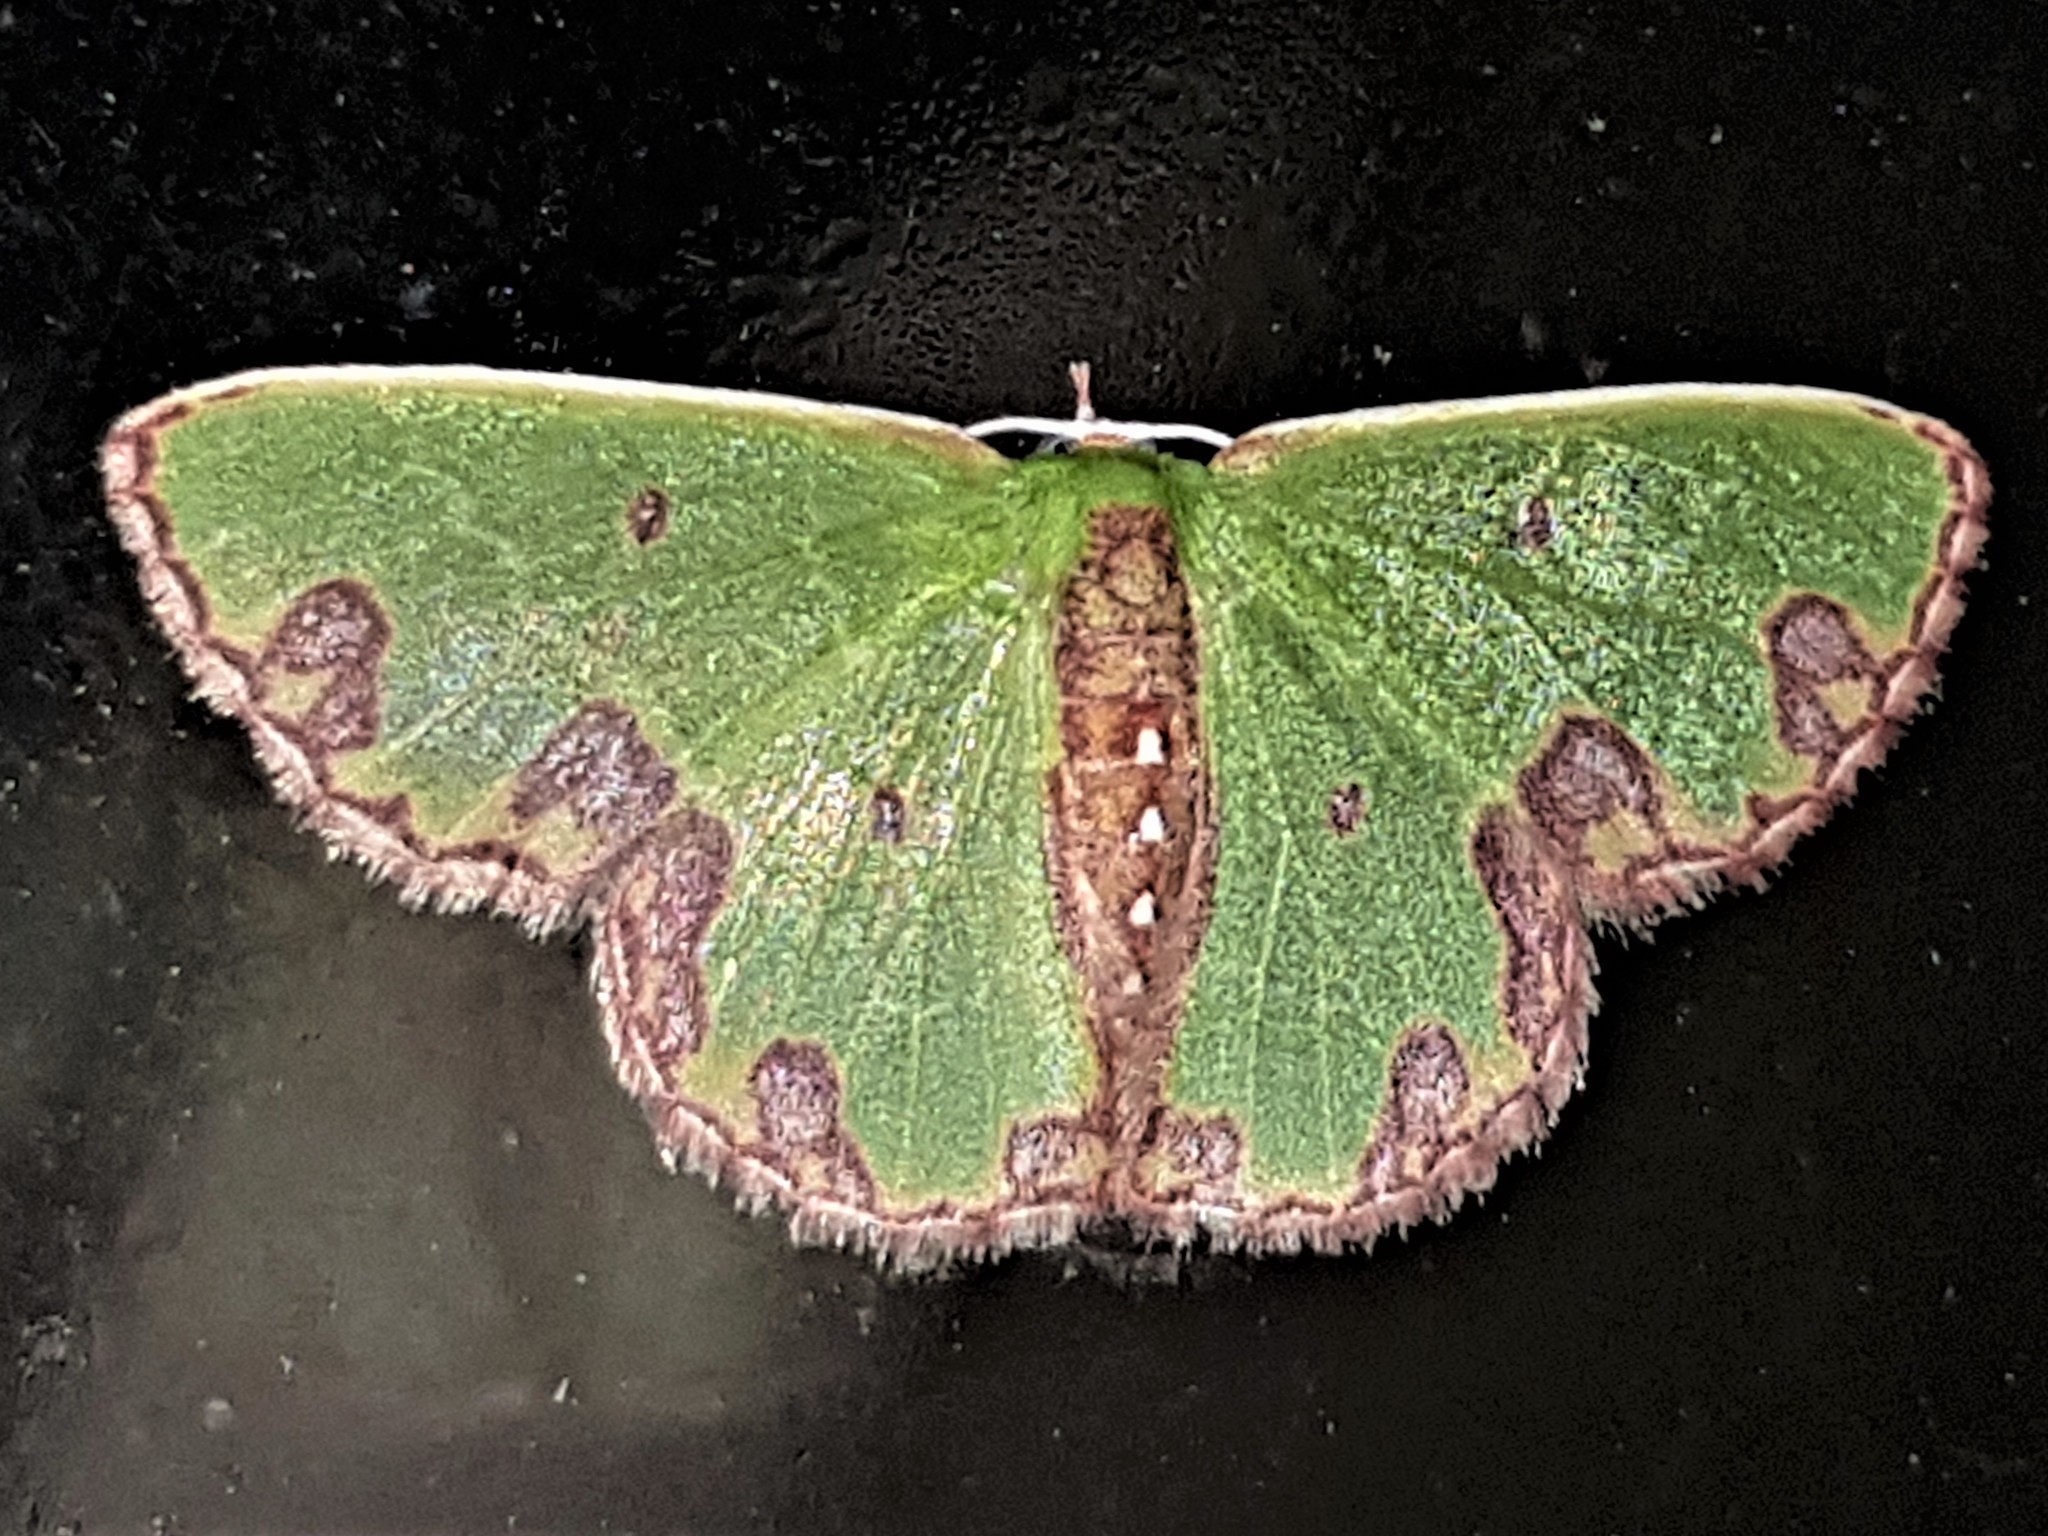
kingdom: Animalia
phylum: Arthropoda
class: Insecta
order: Lepidoptera
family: Geometridae
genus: Synchlora
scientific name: Synchlora gerularia
